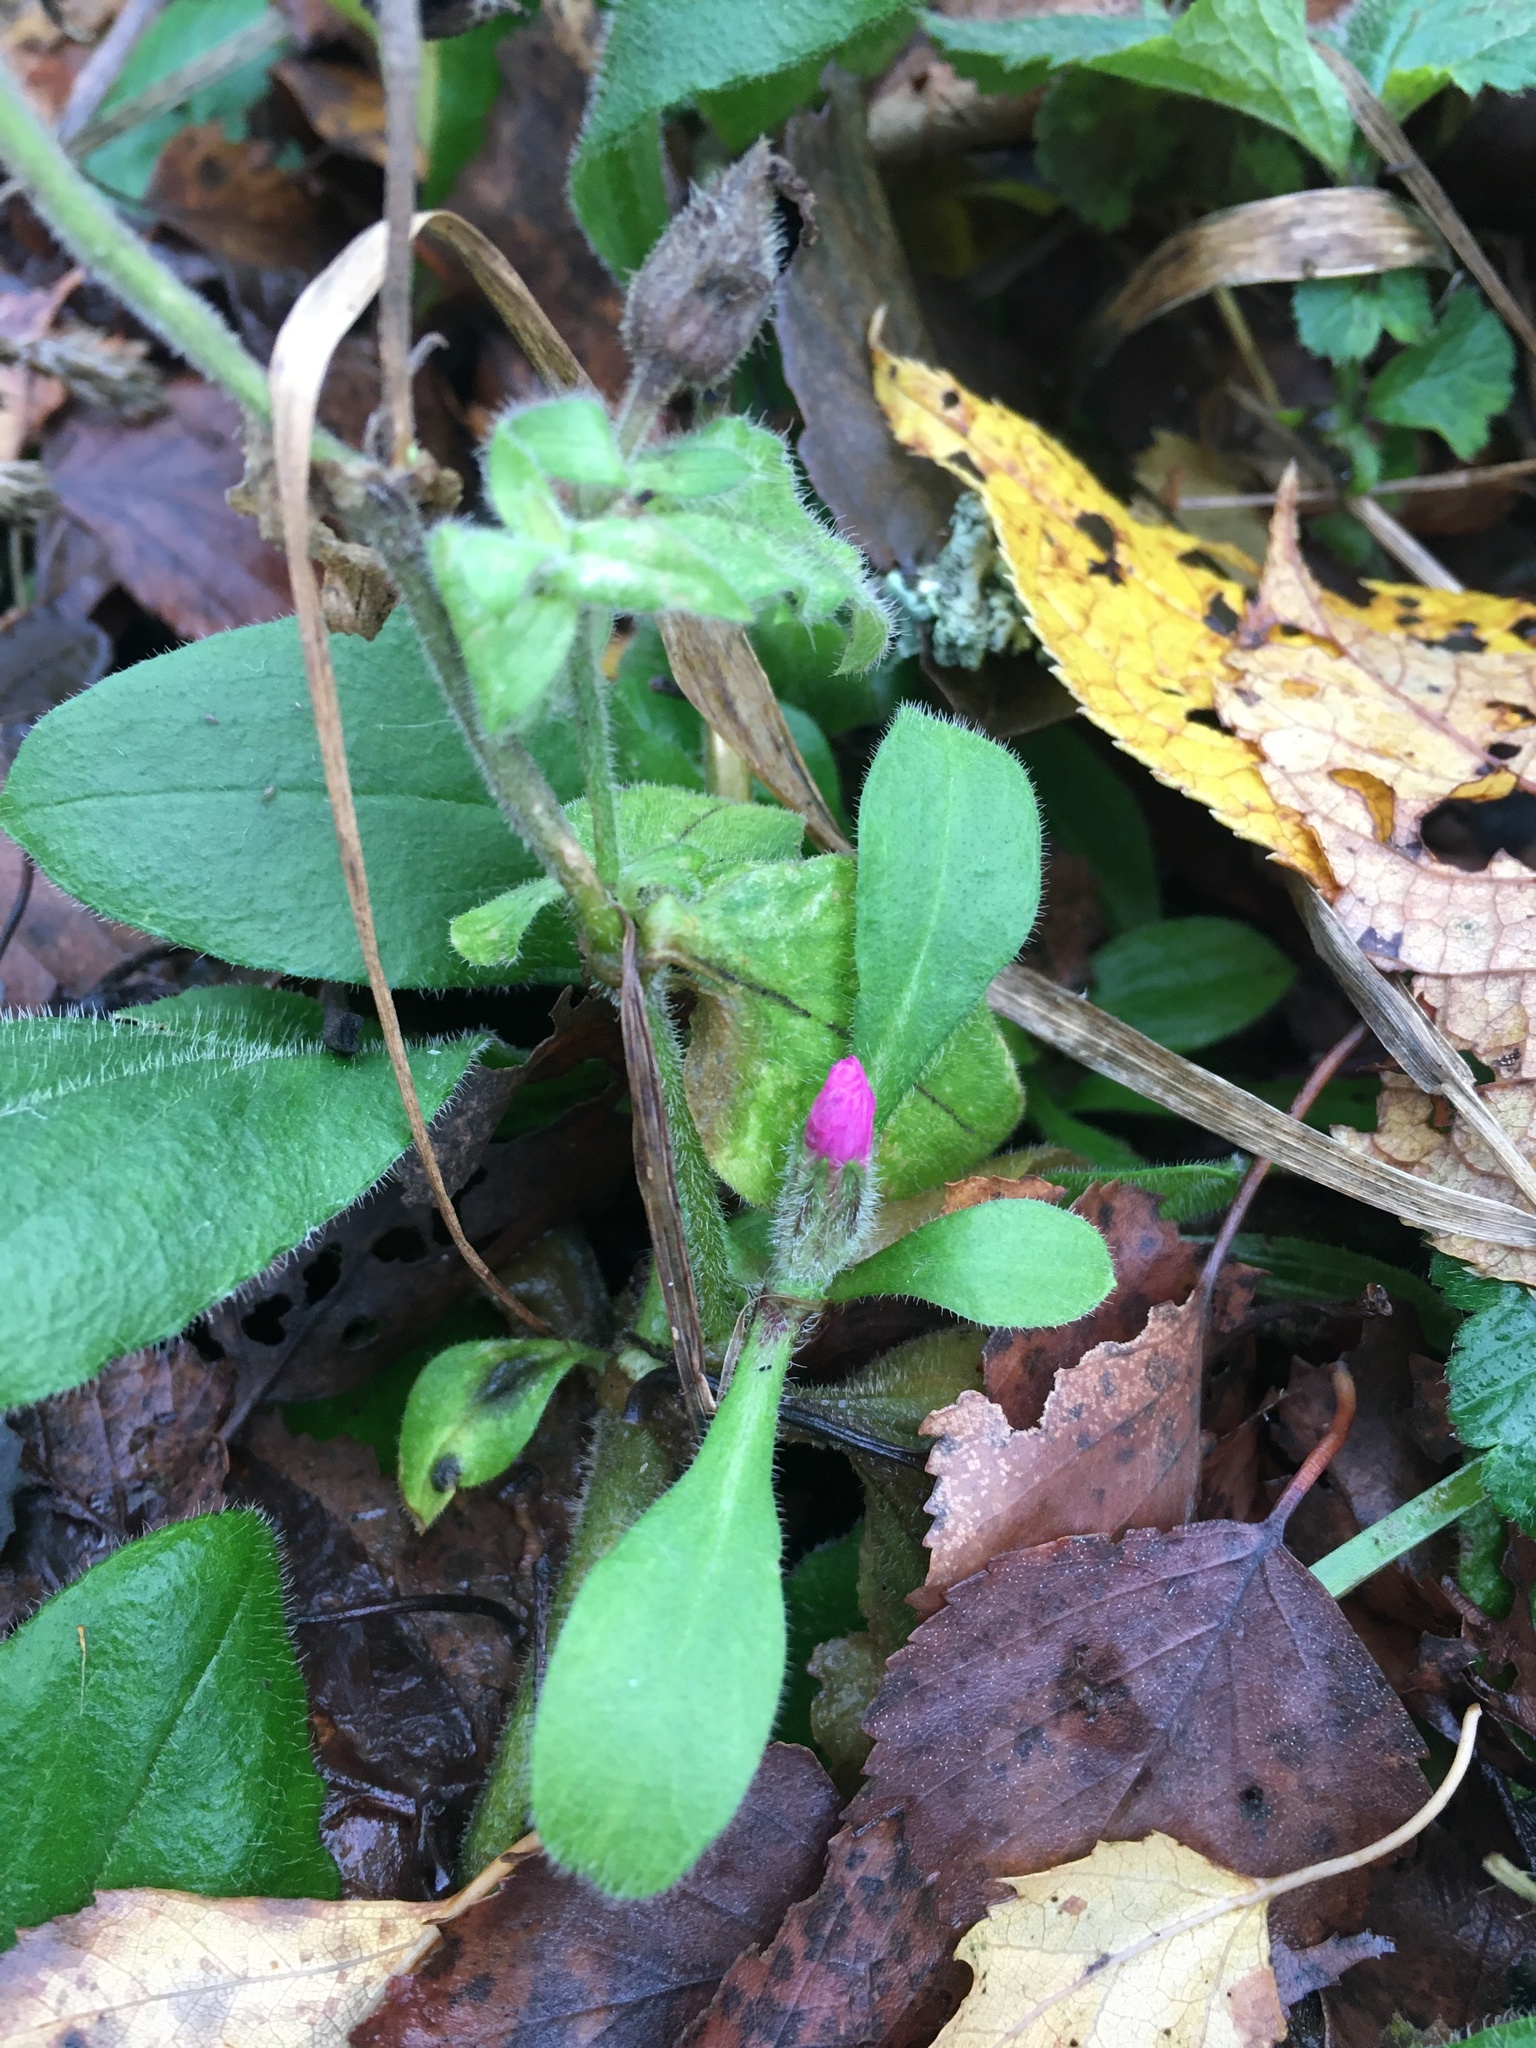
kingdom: Plantae
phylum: Tracheophyta
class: Magnoliopsida
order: Caryophyllales
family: Caryophyllaceae
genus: Silene
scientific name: Silene dioica
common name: Red campion
